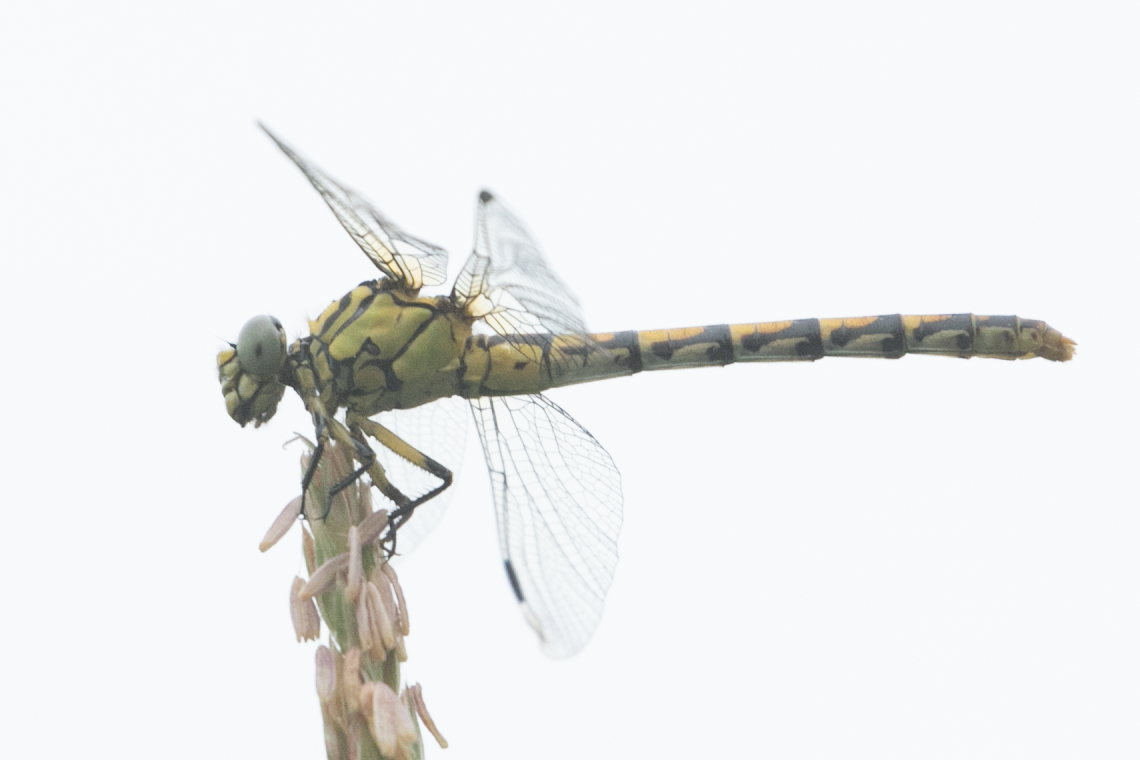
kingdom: Animalia
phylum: Arthropoda
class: Insecta
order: Odonata
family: Gomphidae
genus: Onychogomphus
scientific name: Onychogomphus forcipatus
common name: Small pincertail
